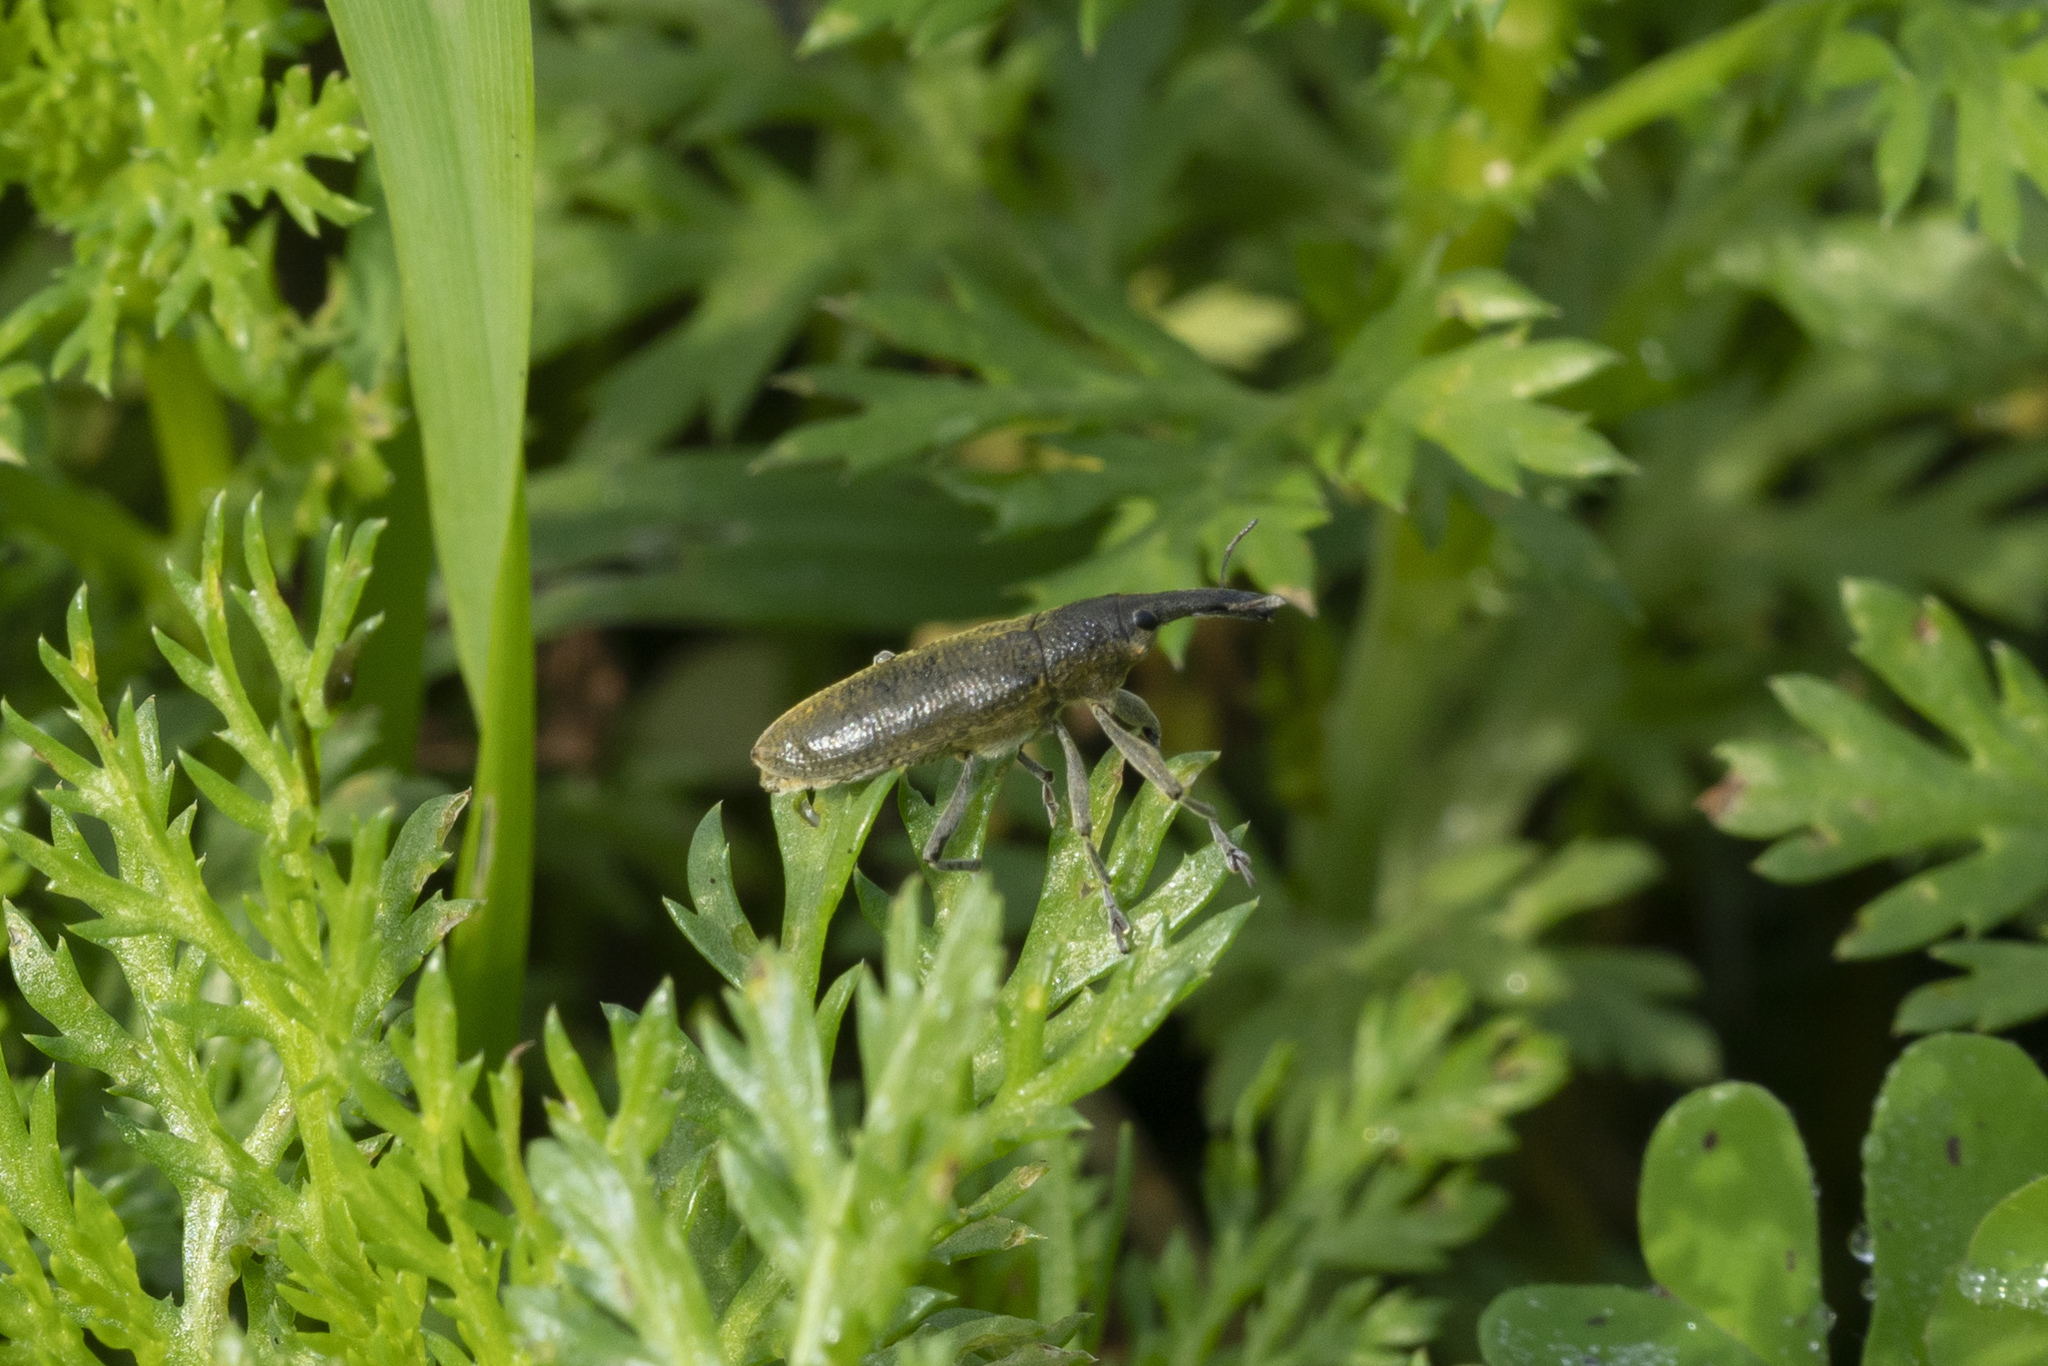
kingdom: Animalia
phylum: Arthropoda
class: Insecta
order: Coleoptera
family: Curculionidae
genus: Lixus
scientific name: Lixus pulverulentus
